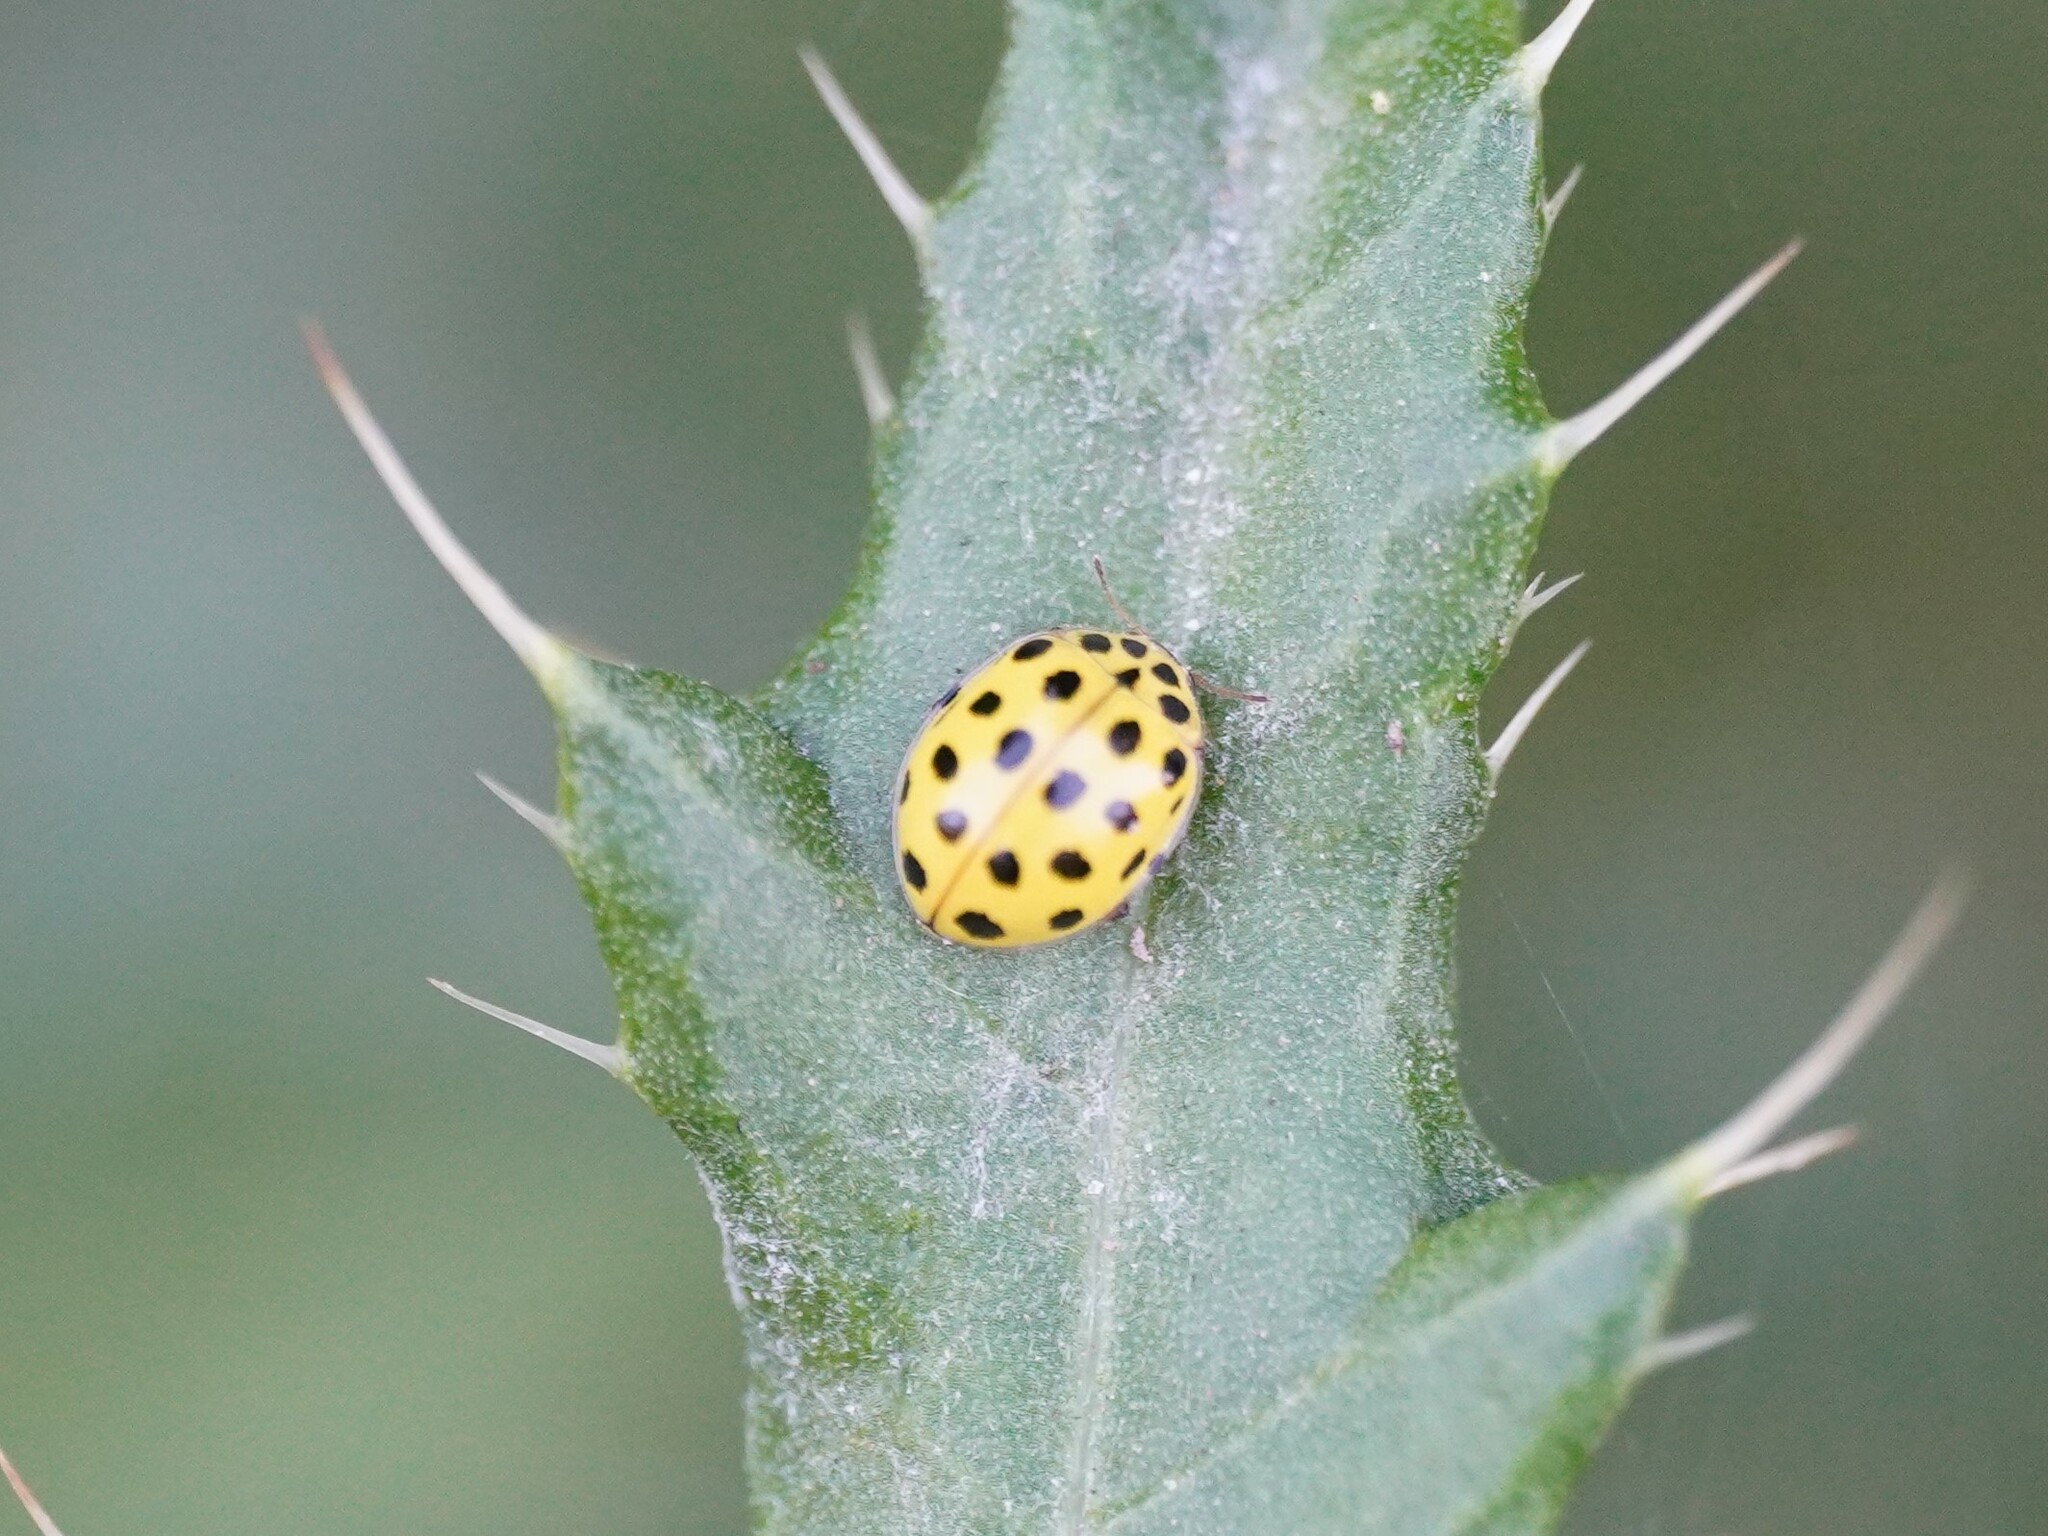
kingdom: Animalia
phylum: Arthropoda
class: Insecta
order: Coleoptera
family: Coccinellidae
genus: Psyllobora
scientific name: Psyllobora vigintiduopunctata
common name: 22-spot ladybird
